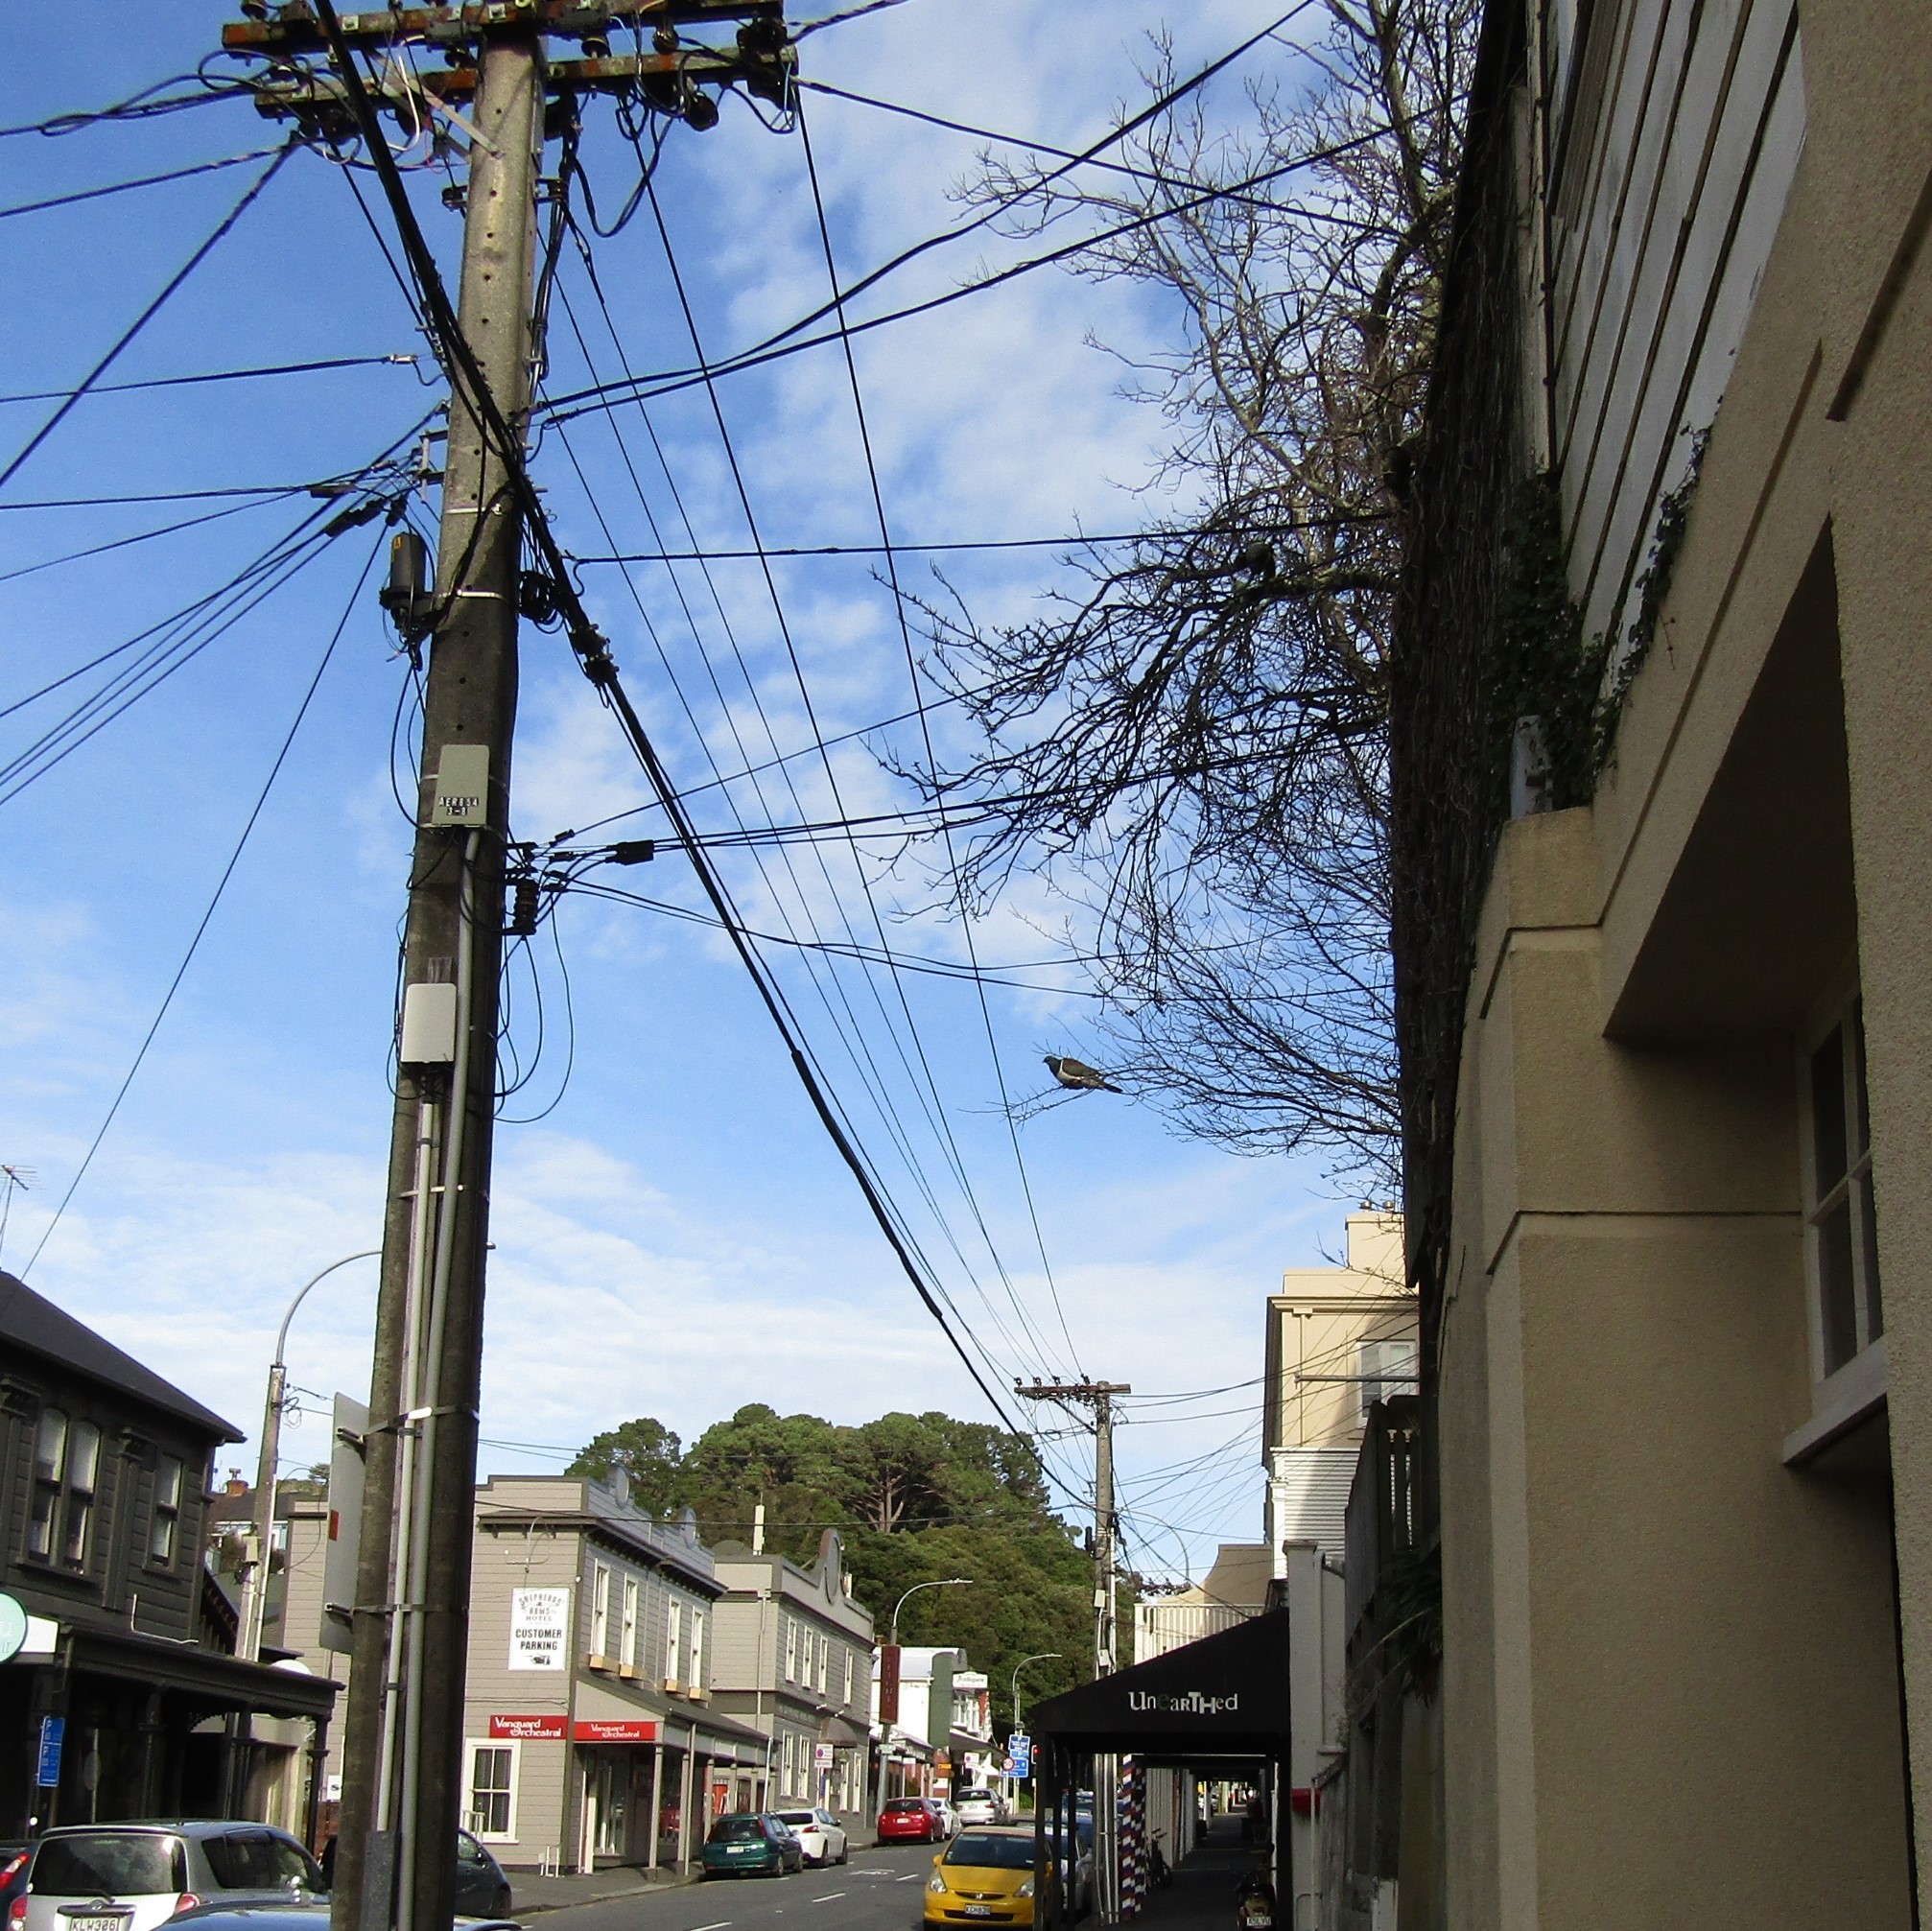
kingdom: Animalia
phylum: Chordata
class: Aves
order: Columbiformes
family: Columbidae
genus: Hemiphaga
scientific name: Hemiphaga novaeseelandiae
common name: New zealand pigeon
